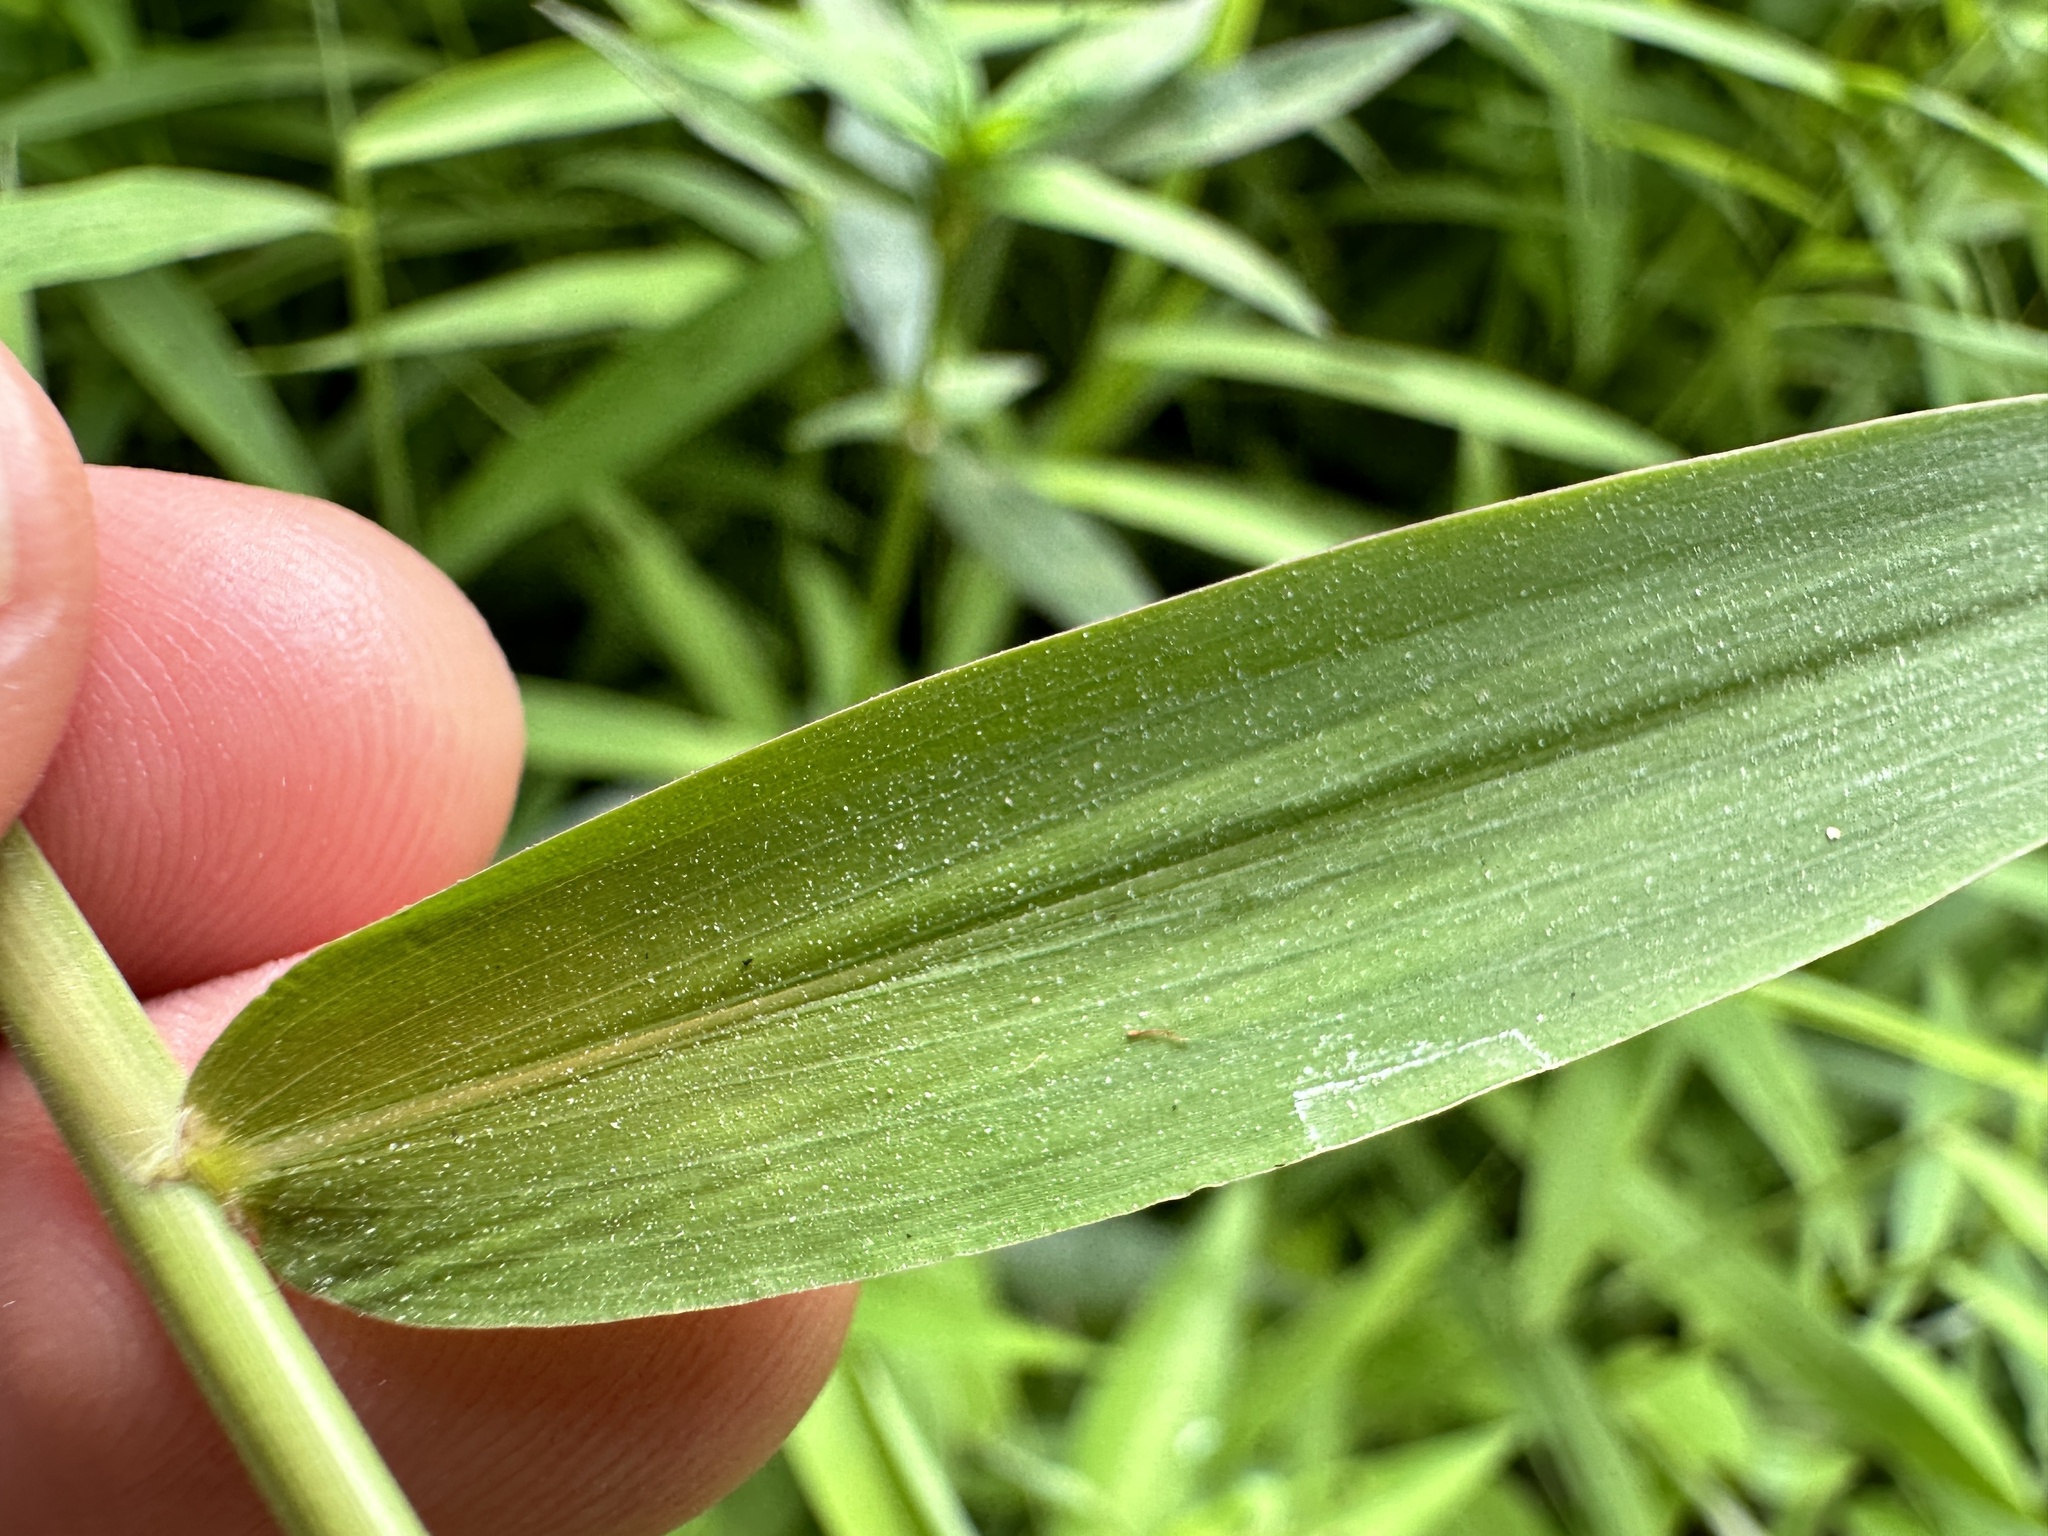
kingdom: Plantae
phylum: Tracheophyta
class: Liliopsida
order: Poales
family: Poaceae
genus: Panicum
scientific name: Panicum trichocladum
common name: Donkey grass
